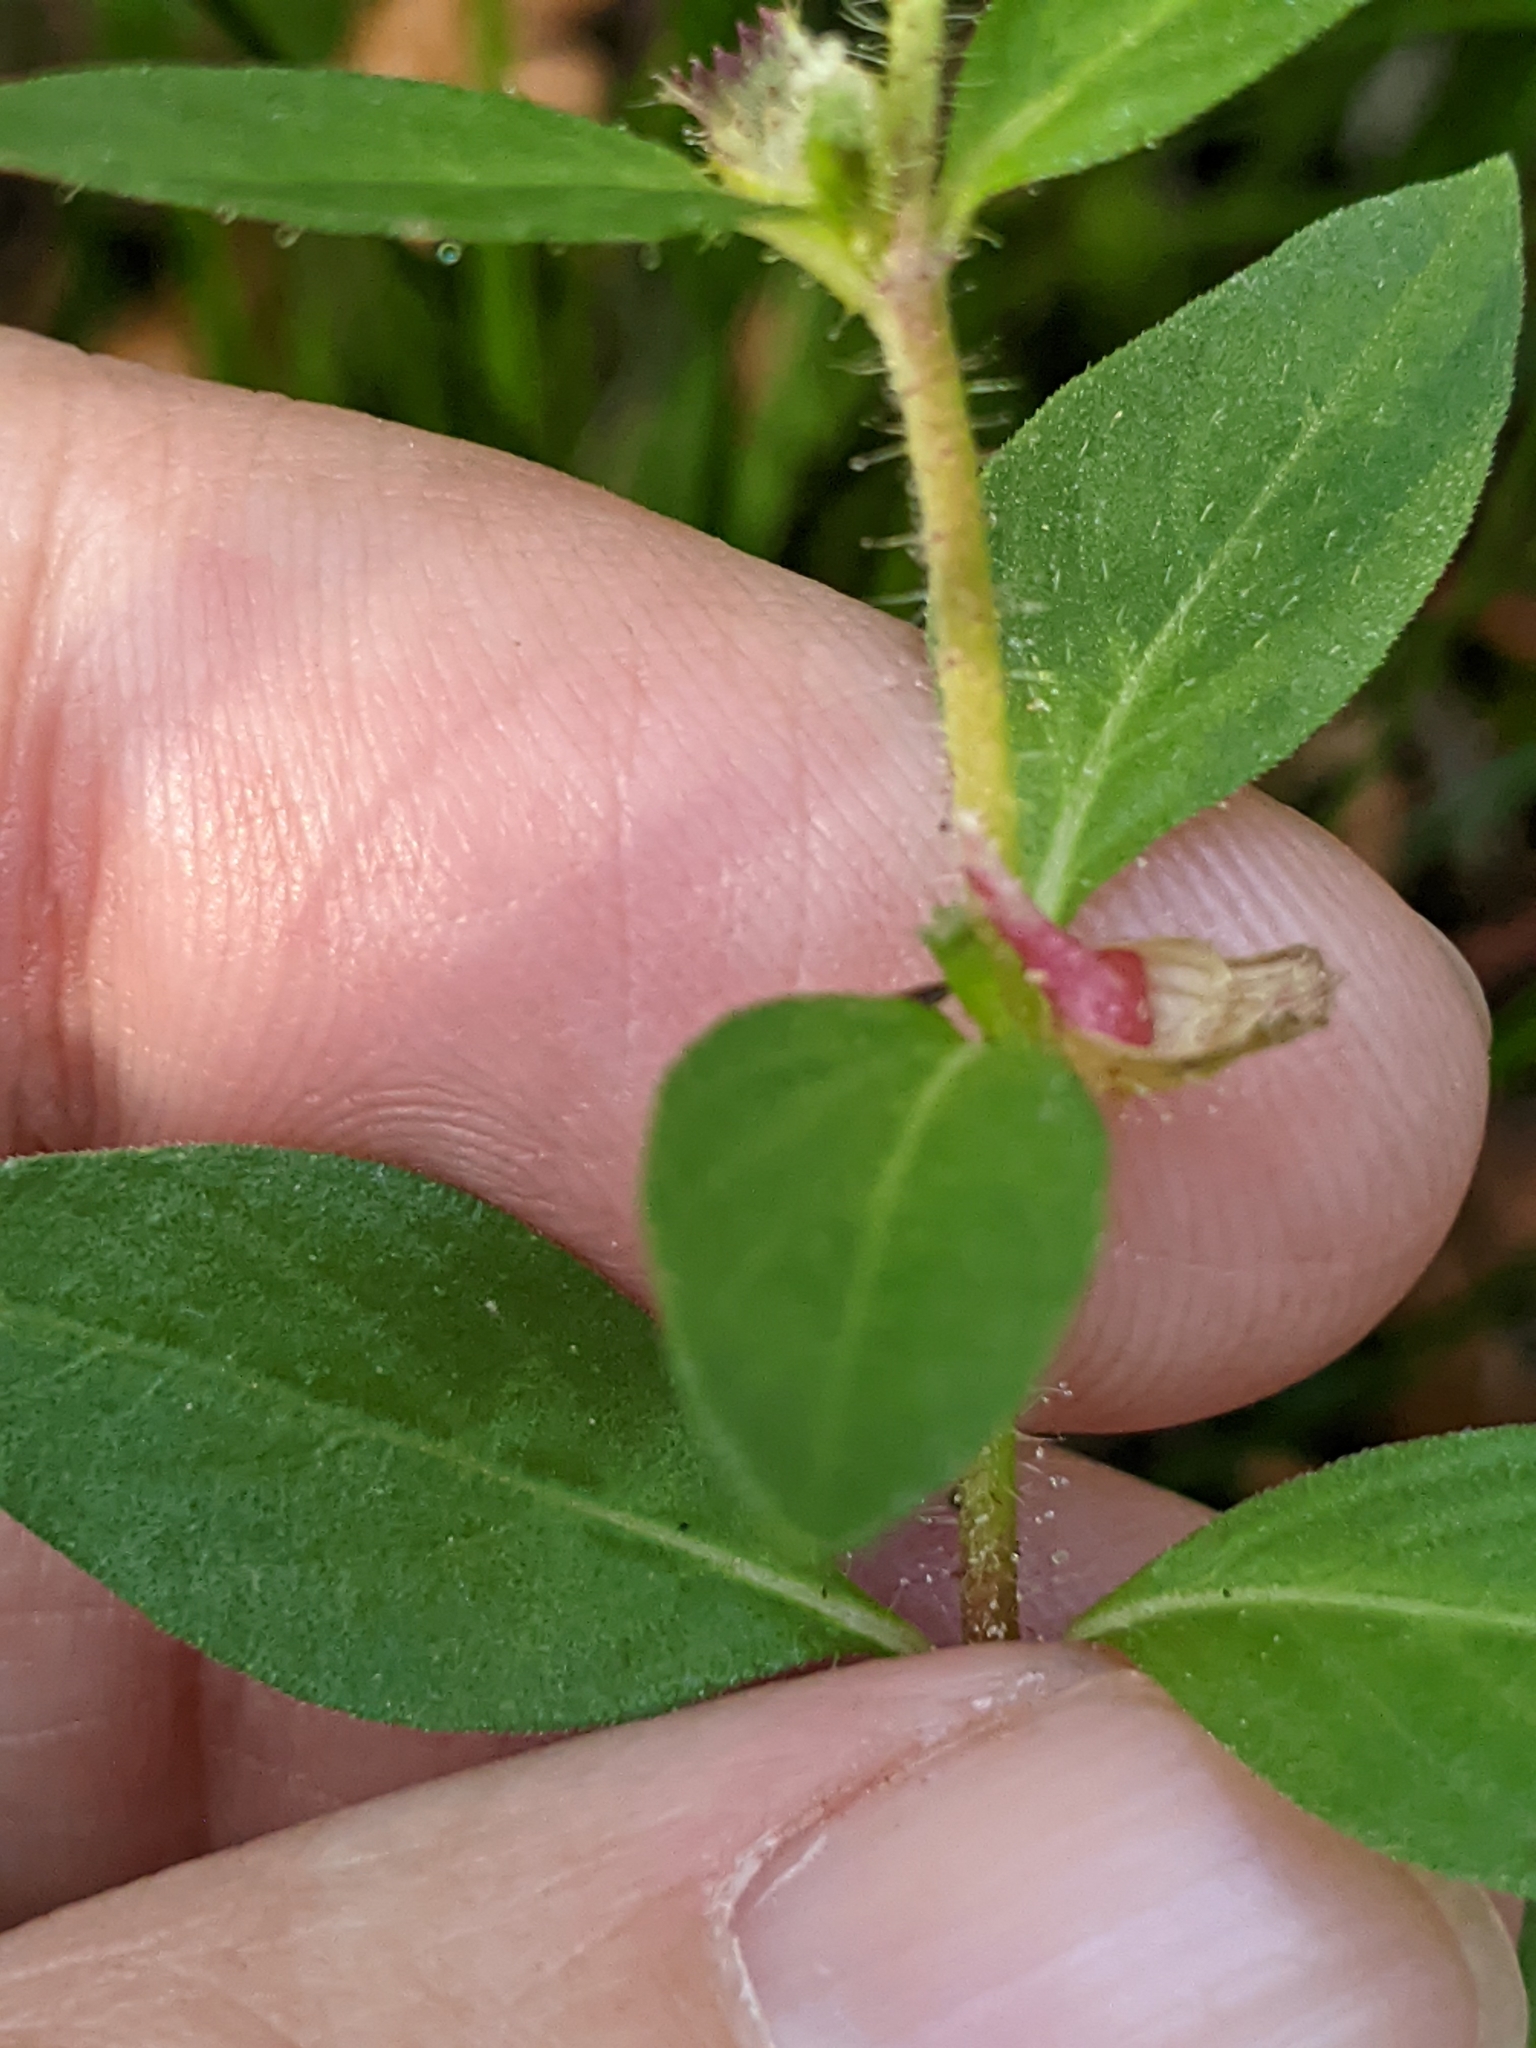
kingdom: Plantae
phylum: Tracheophyta
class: Magnoliopsida
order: Myrtales
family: Lythraceae
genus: Cuphea
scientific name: Cuphea carthagenensis
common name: Colombian waxweed
